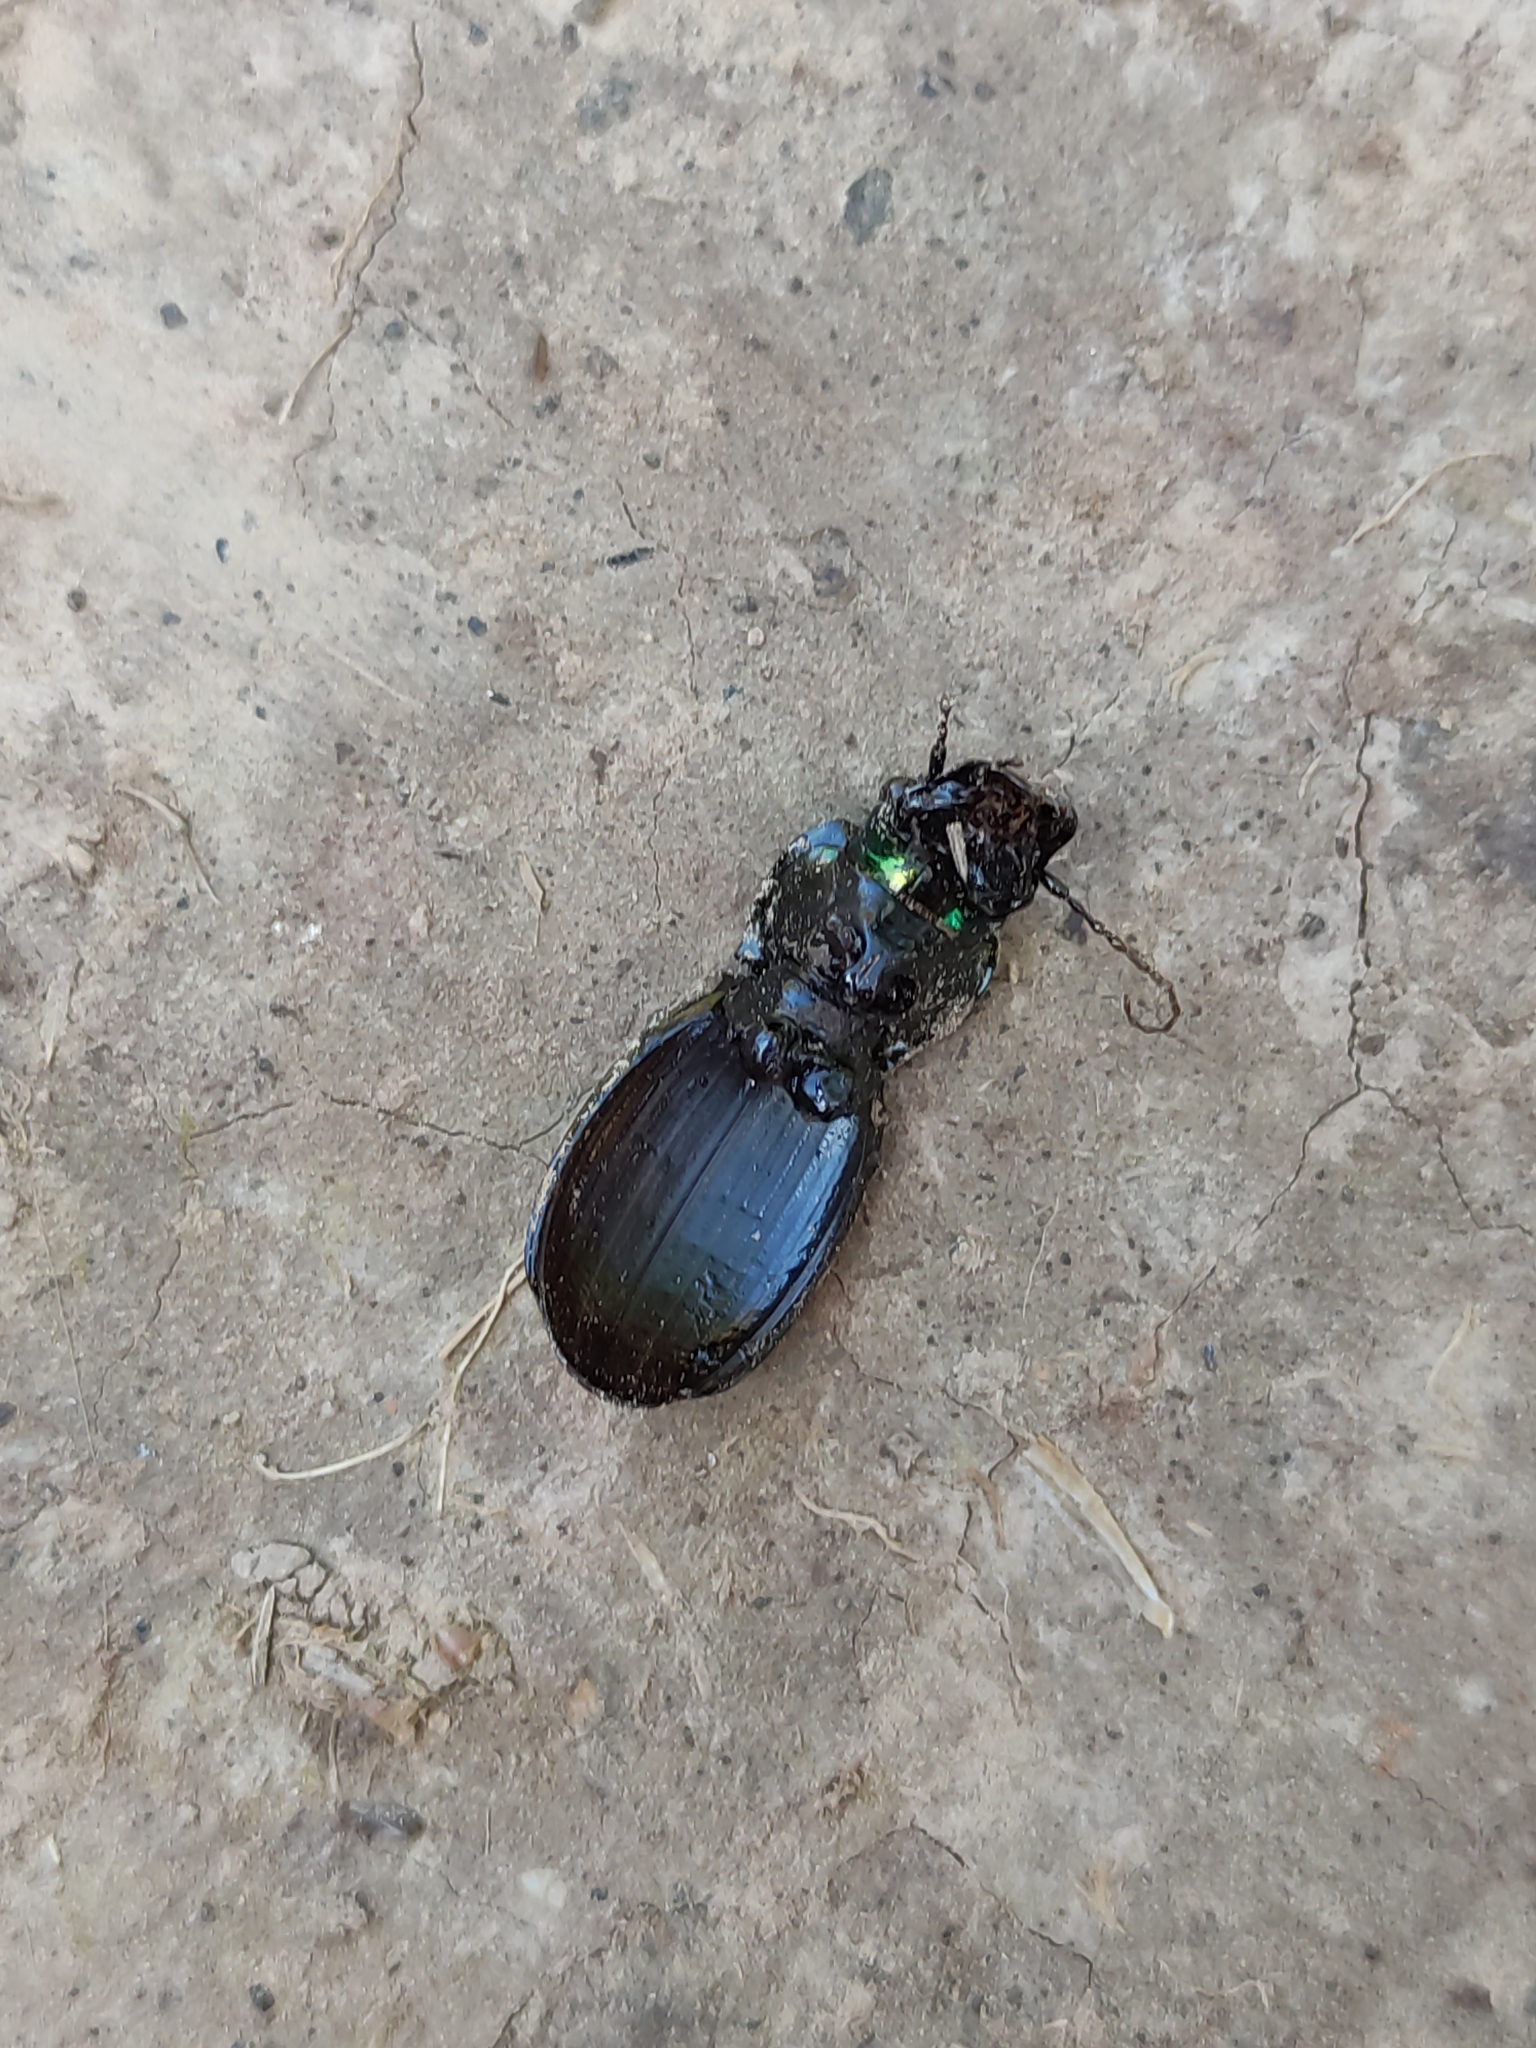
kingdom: Animalia
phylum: Arthropoda
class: Insecta
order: Coleoptera
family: Carabidae
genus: Megadromus
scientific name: Megadromus antarcticus
